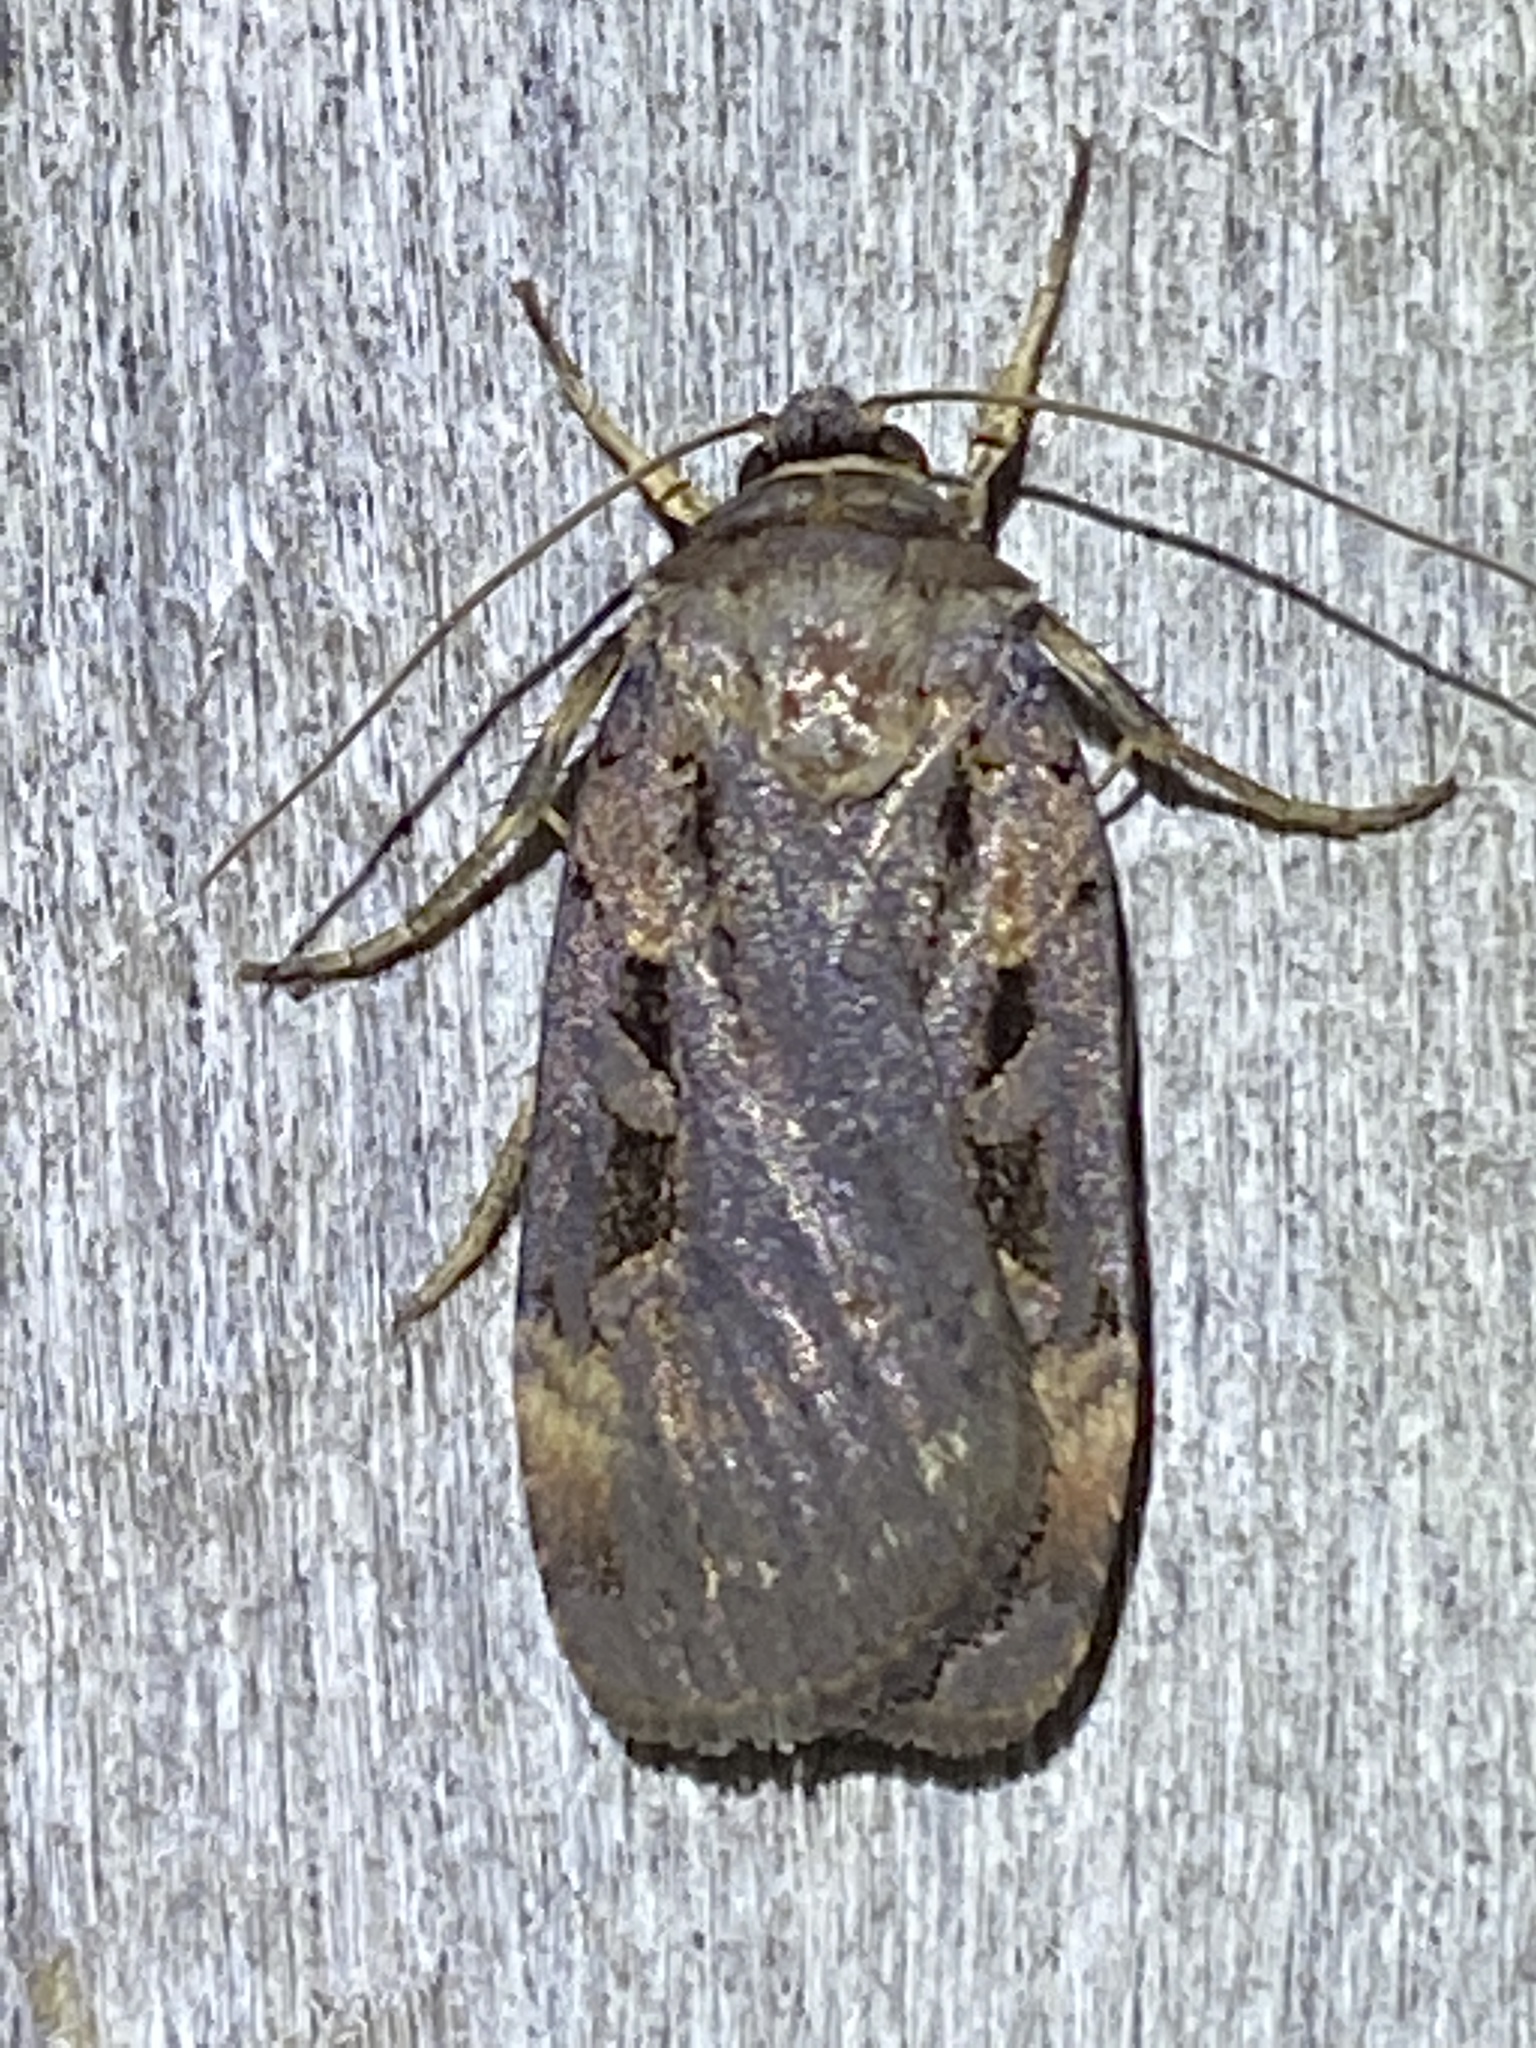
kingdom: Animalia
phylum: Arthropoda
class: Insecta
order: Lepidoptera
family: Noctuidae
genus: Pseudohermonassa
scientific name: Pseudohermonassa bicarnea
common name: Pink spotted dart
